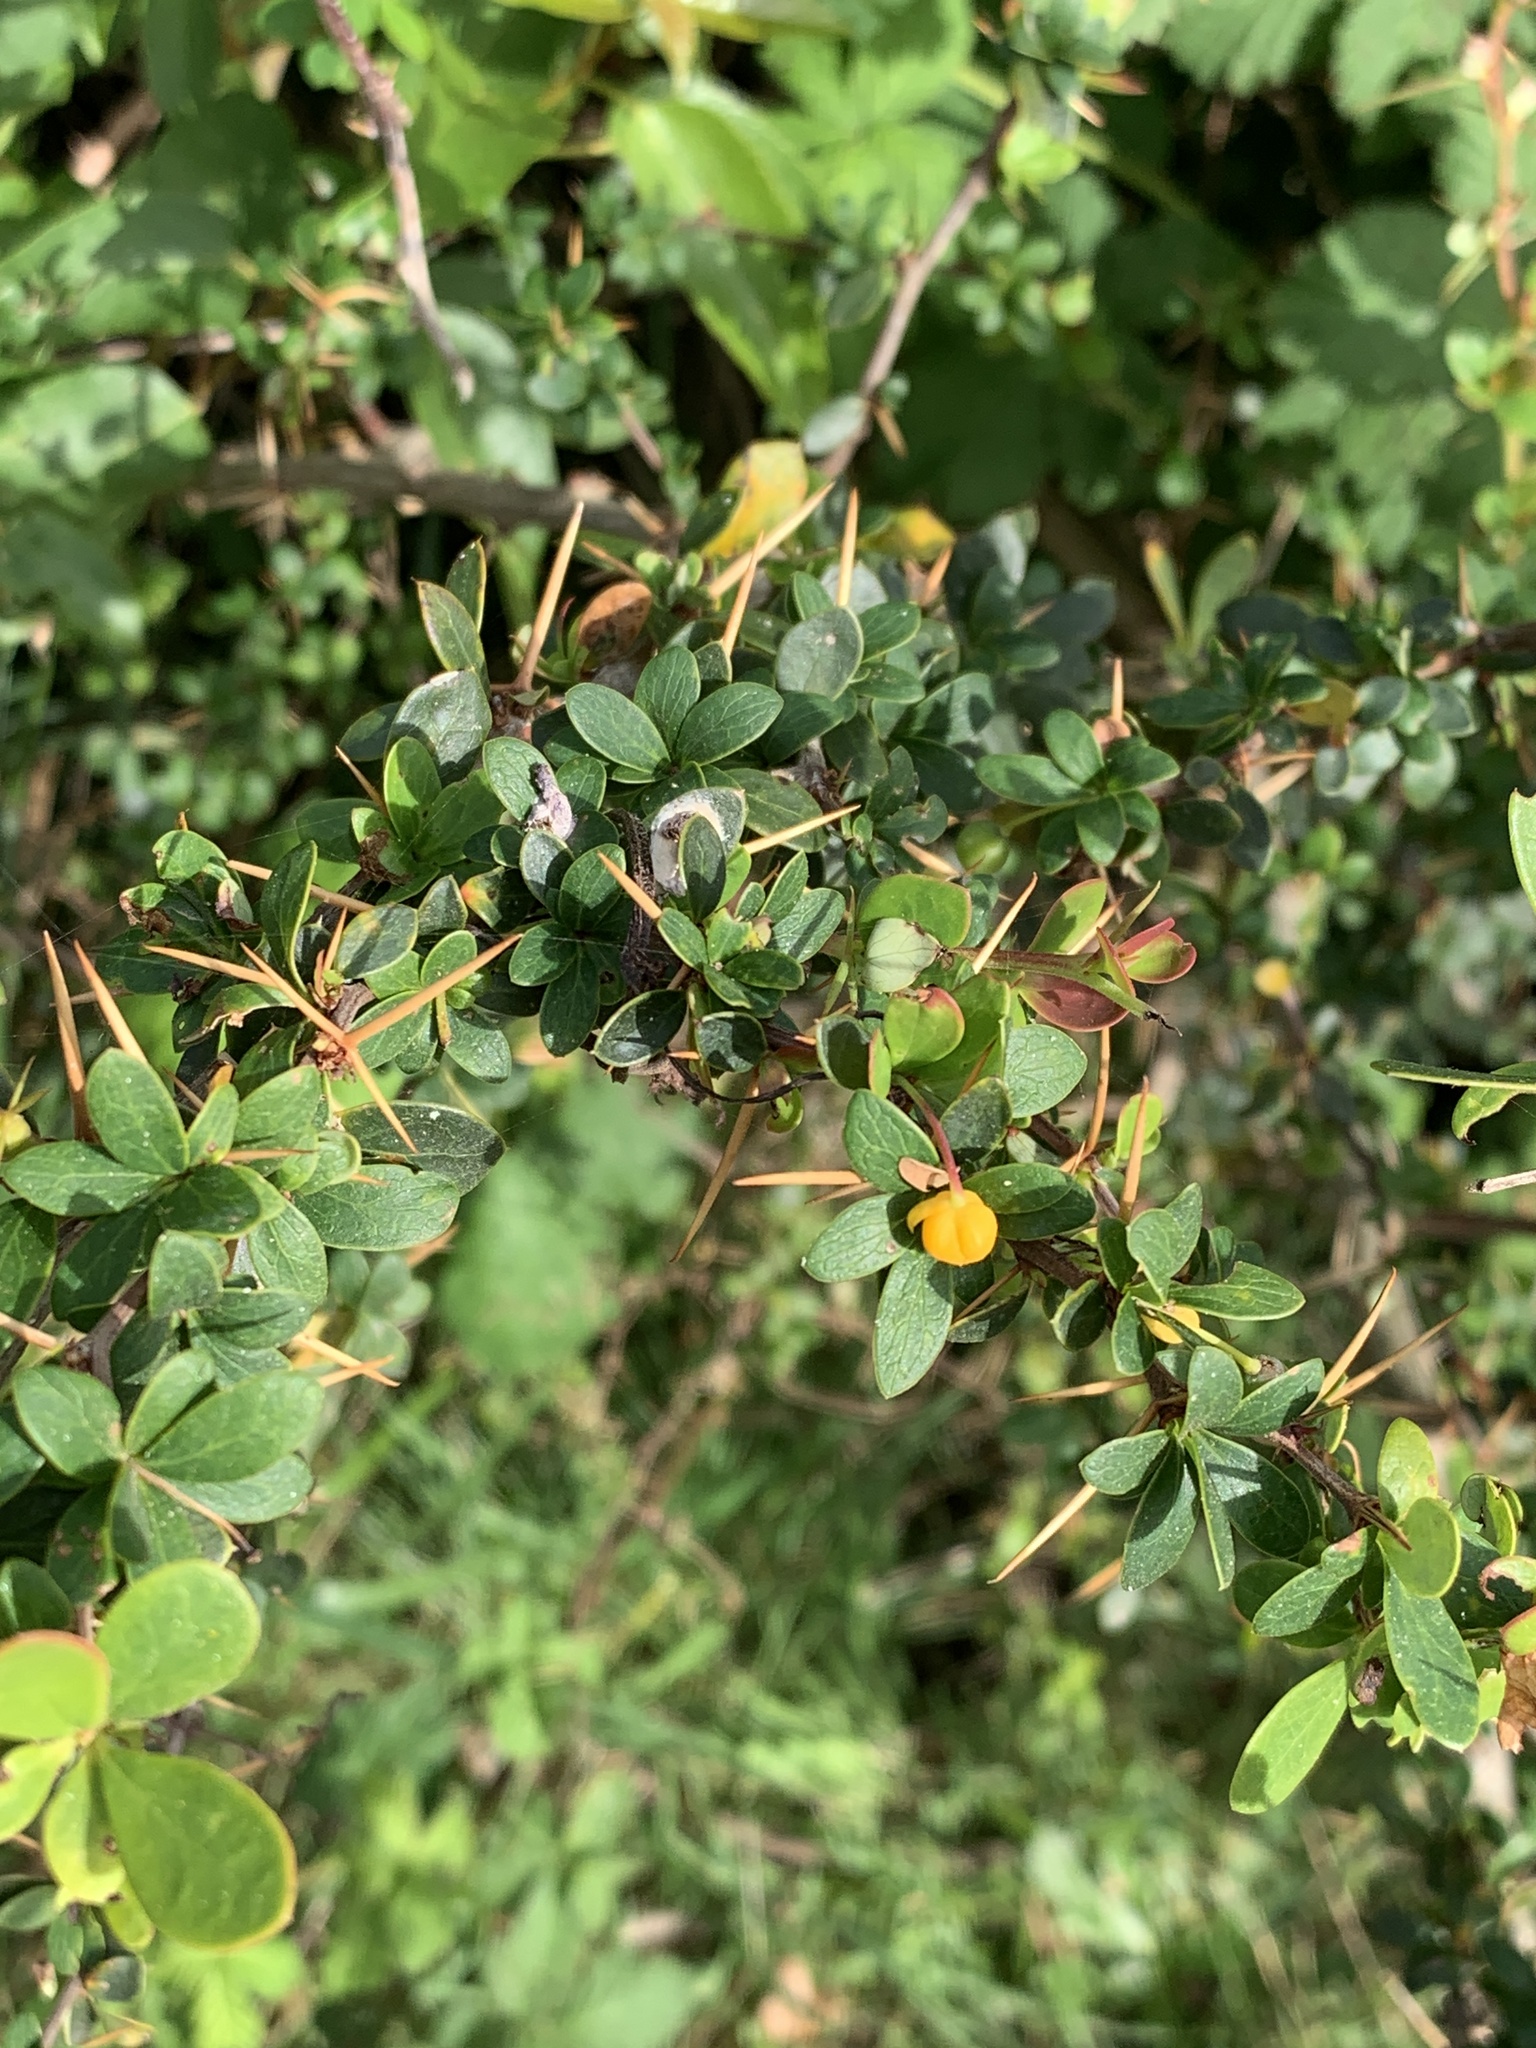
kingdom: Plantae
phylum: Tracheophyta
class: Magnoliopsida
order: Ranunculales
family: Berberidaceae
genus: Berberis
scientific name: Berberis microphylla
